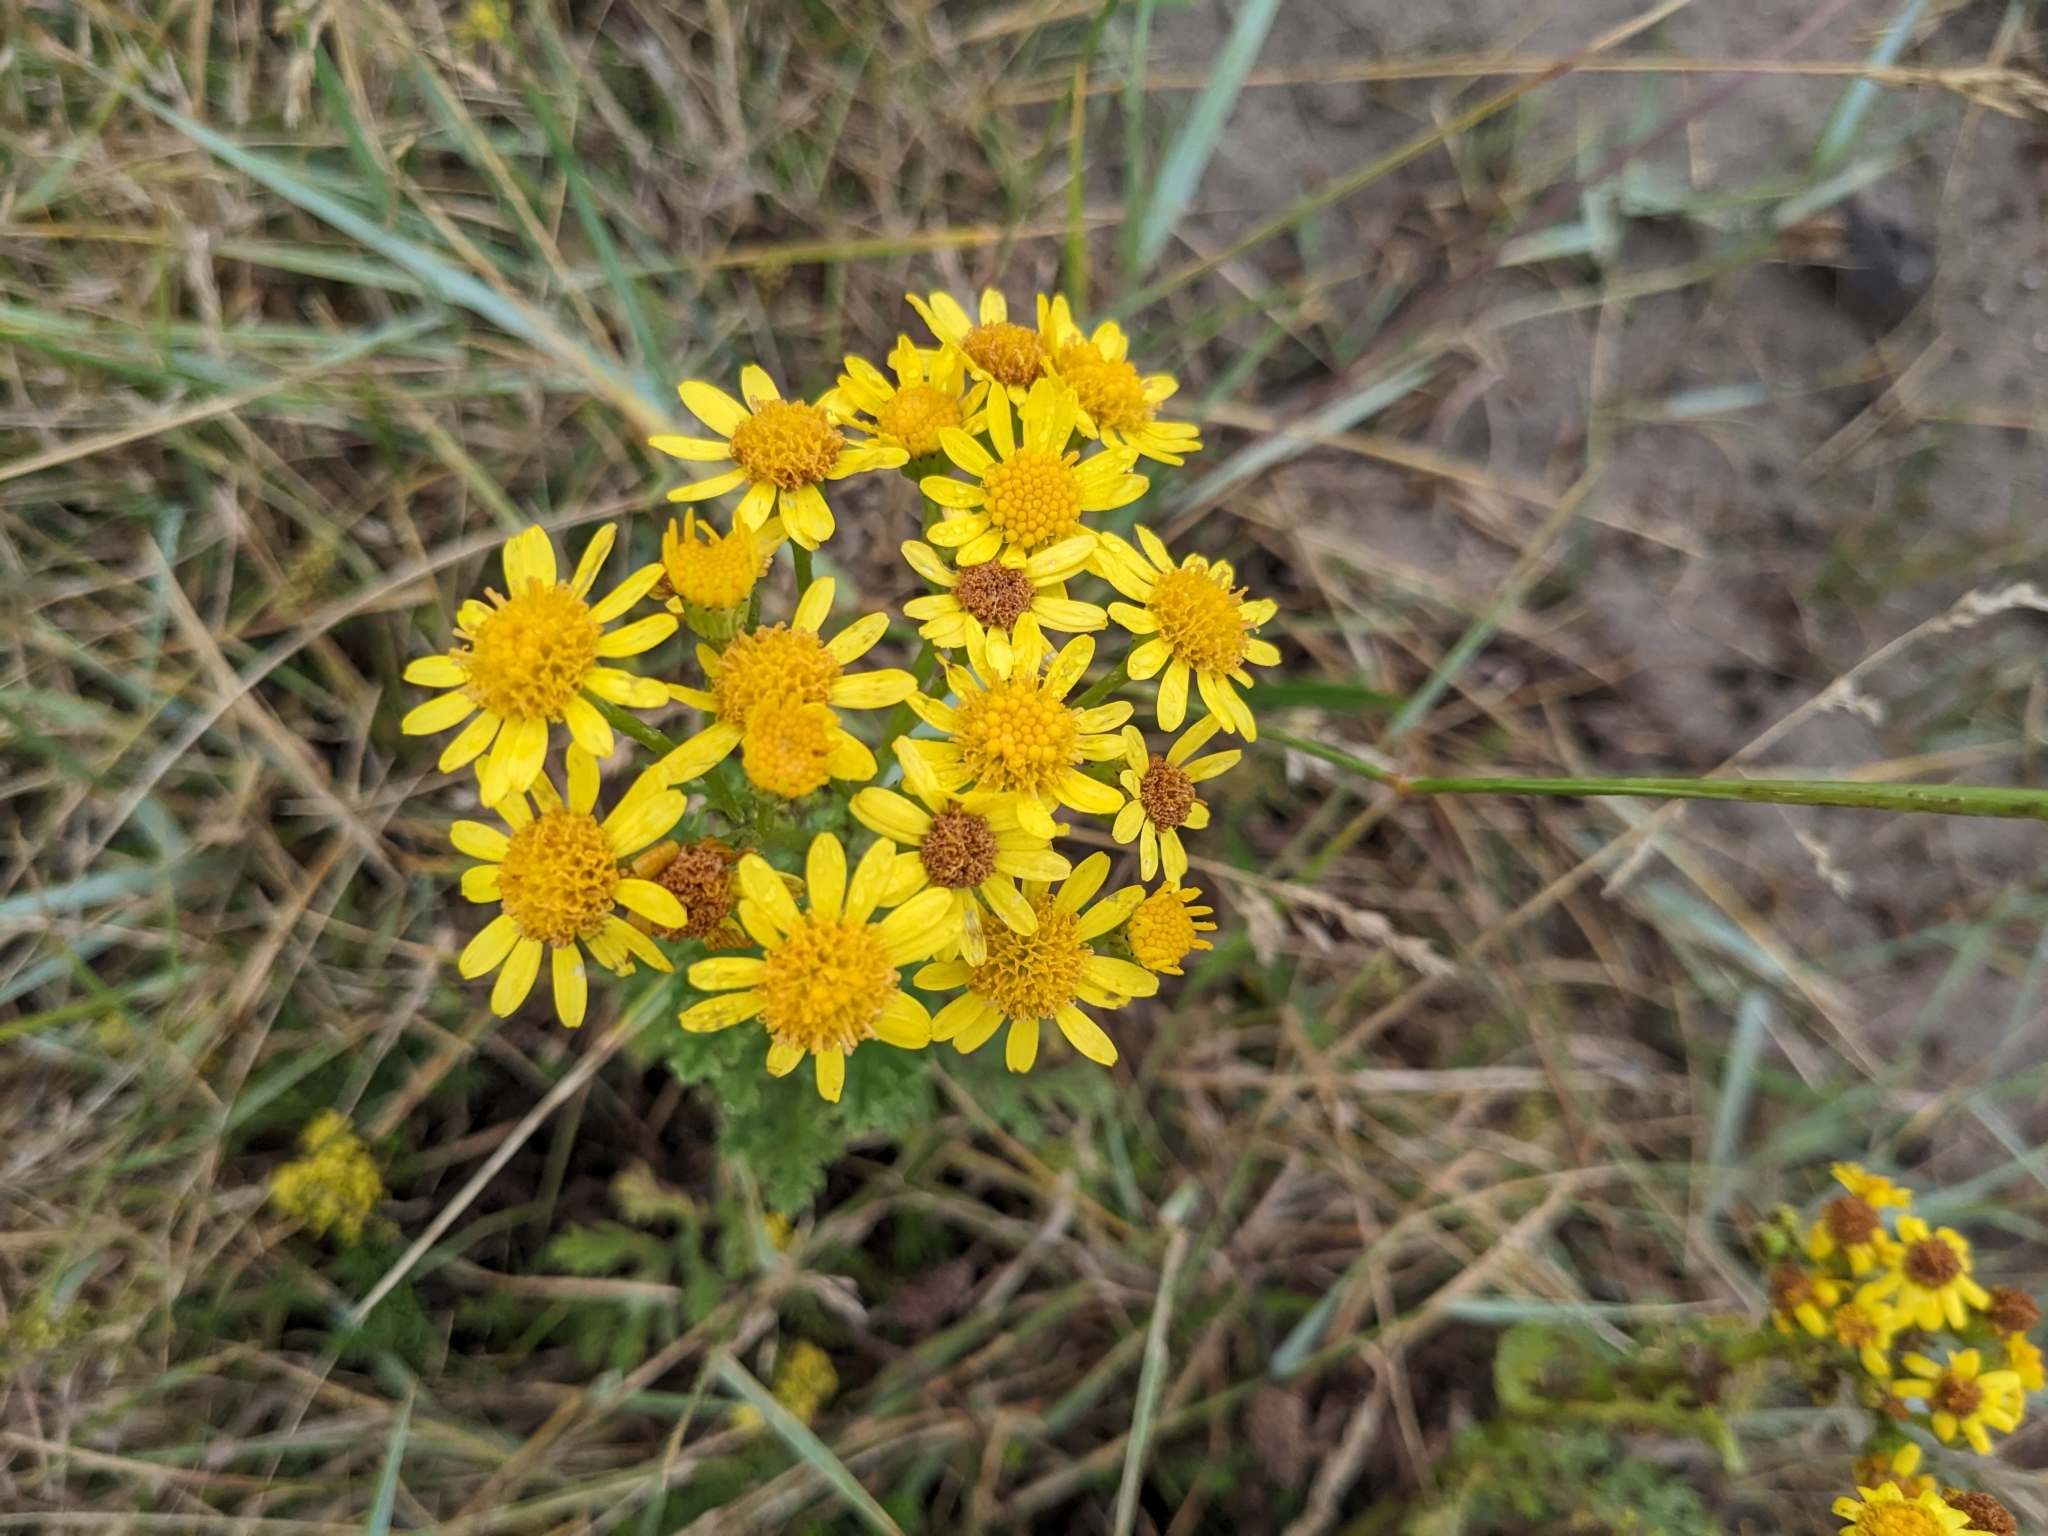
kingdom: Plantae
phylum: Tracheophyta
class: Magnoliopsida
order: Asterales
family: Asteraceae
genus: Jacobaea
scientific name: Jacobaea vulgaris
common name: Stinking willie
